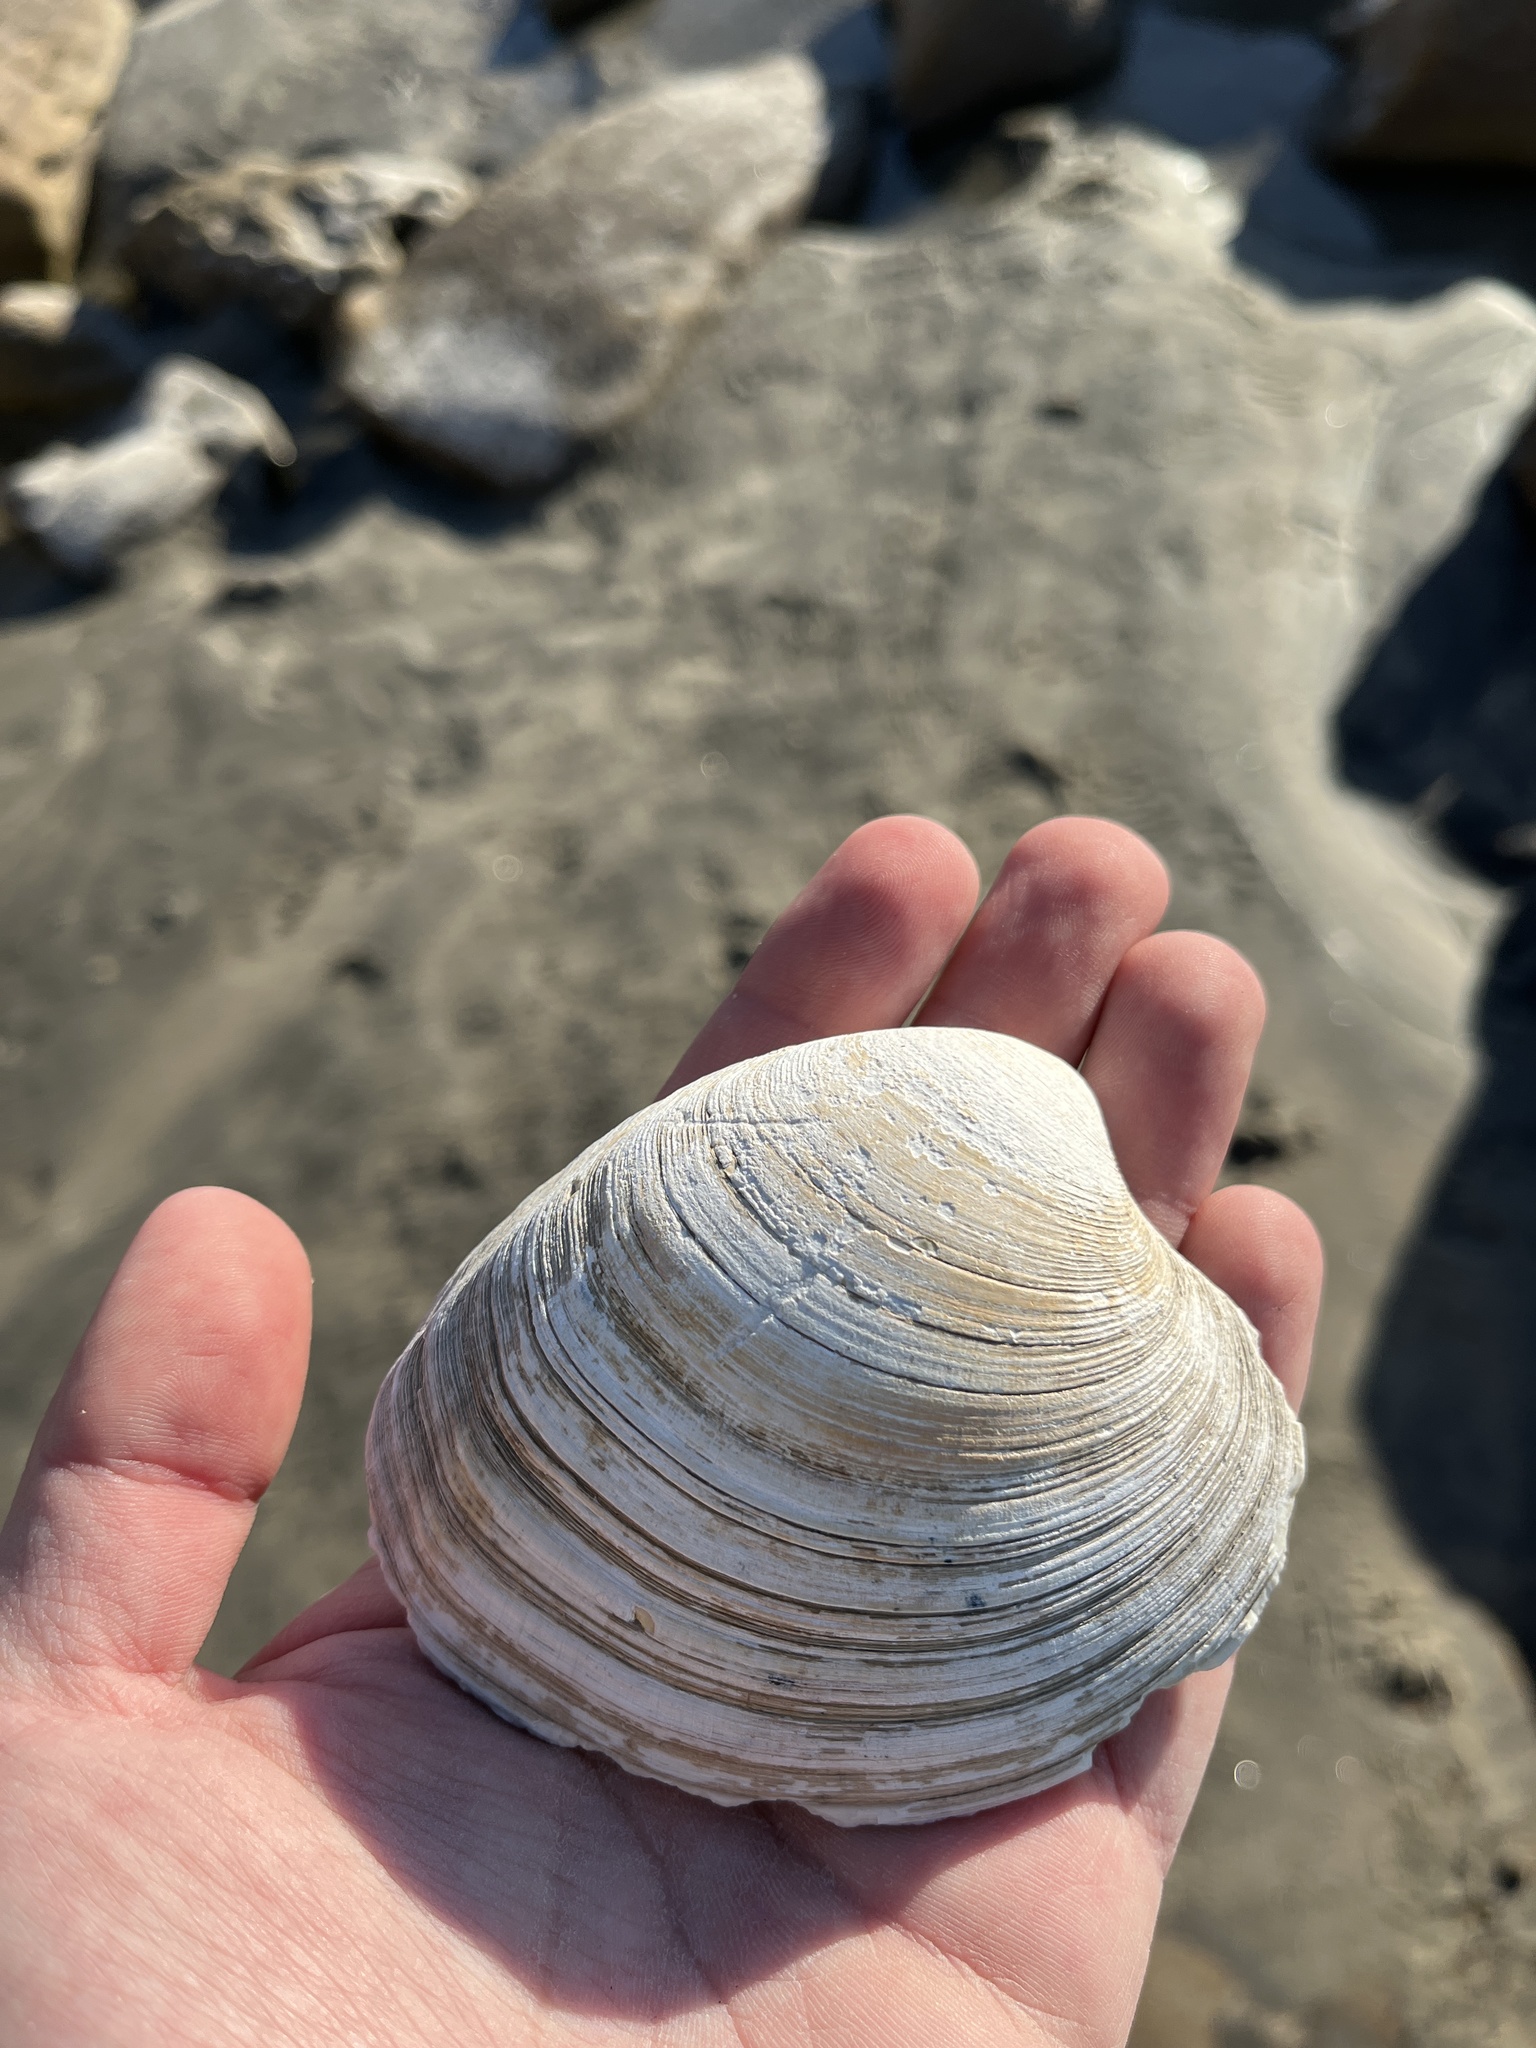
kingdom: Animalia
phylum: Mollusca
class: Bivalvia
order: Venerida
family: Veneridae
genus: Saxidomus
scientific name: Saxidomus nuttalli
